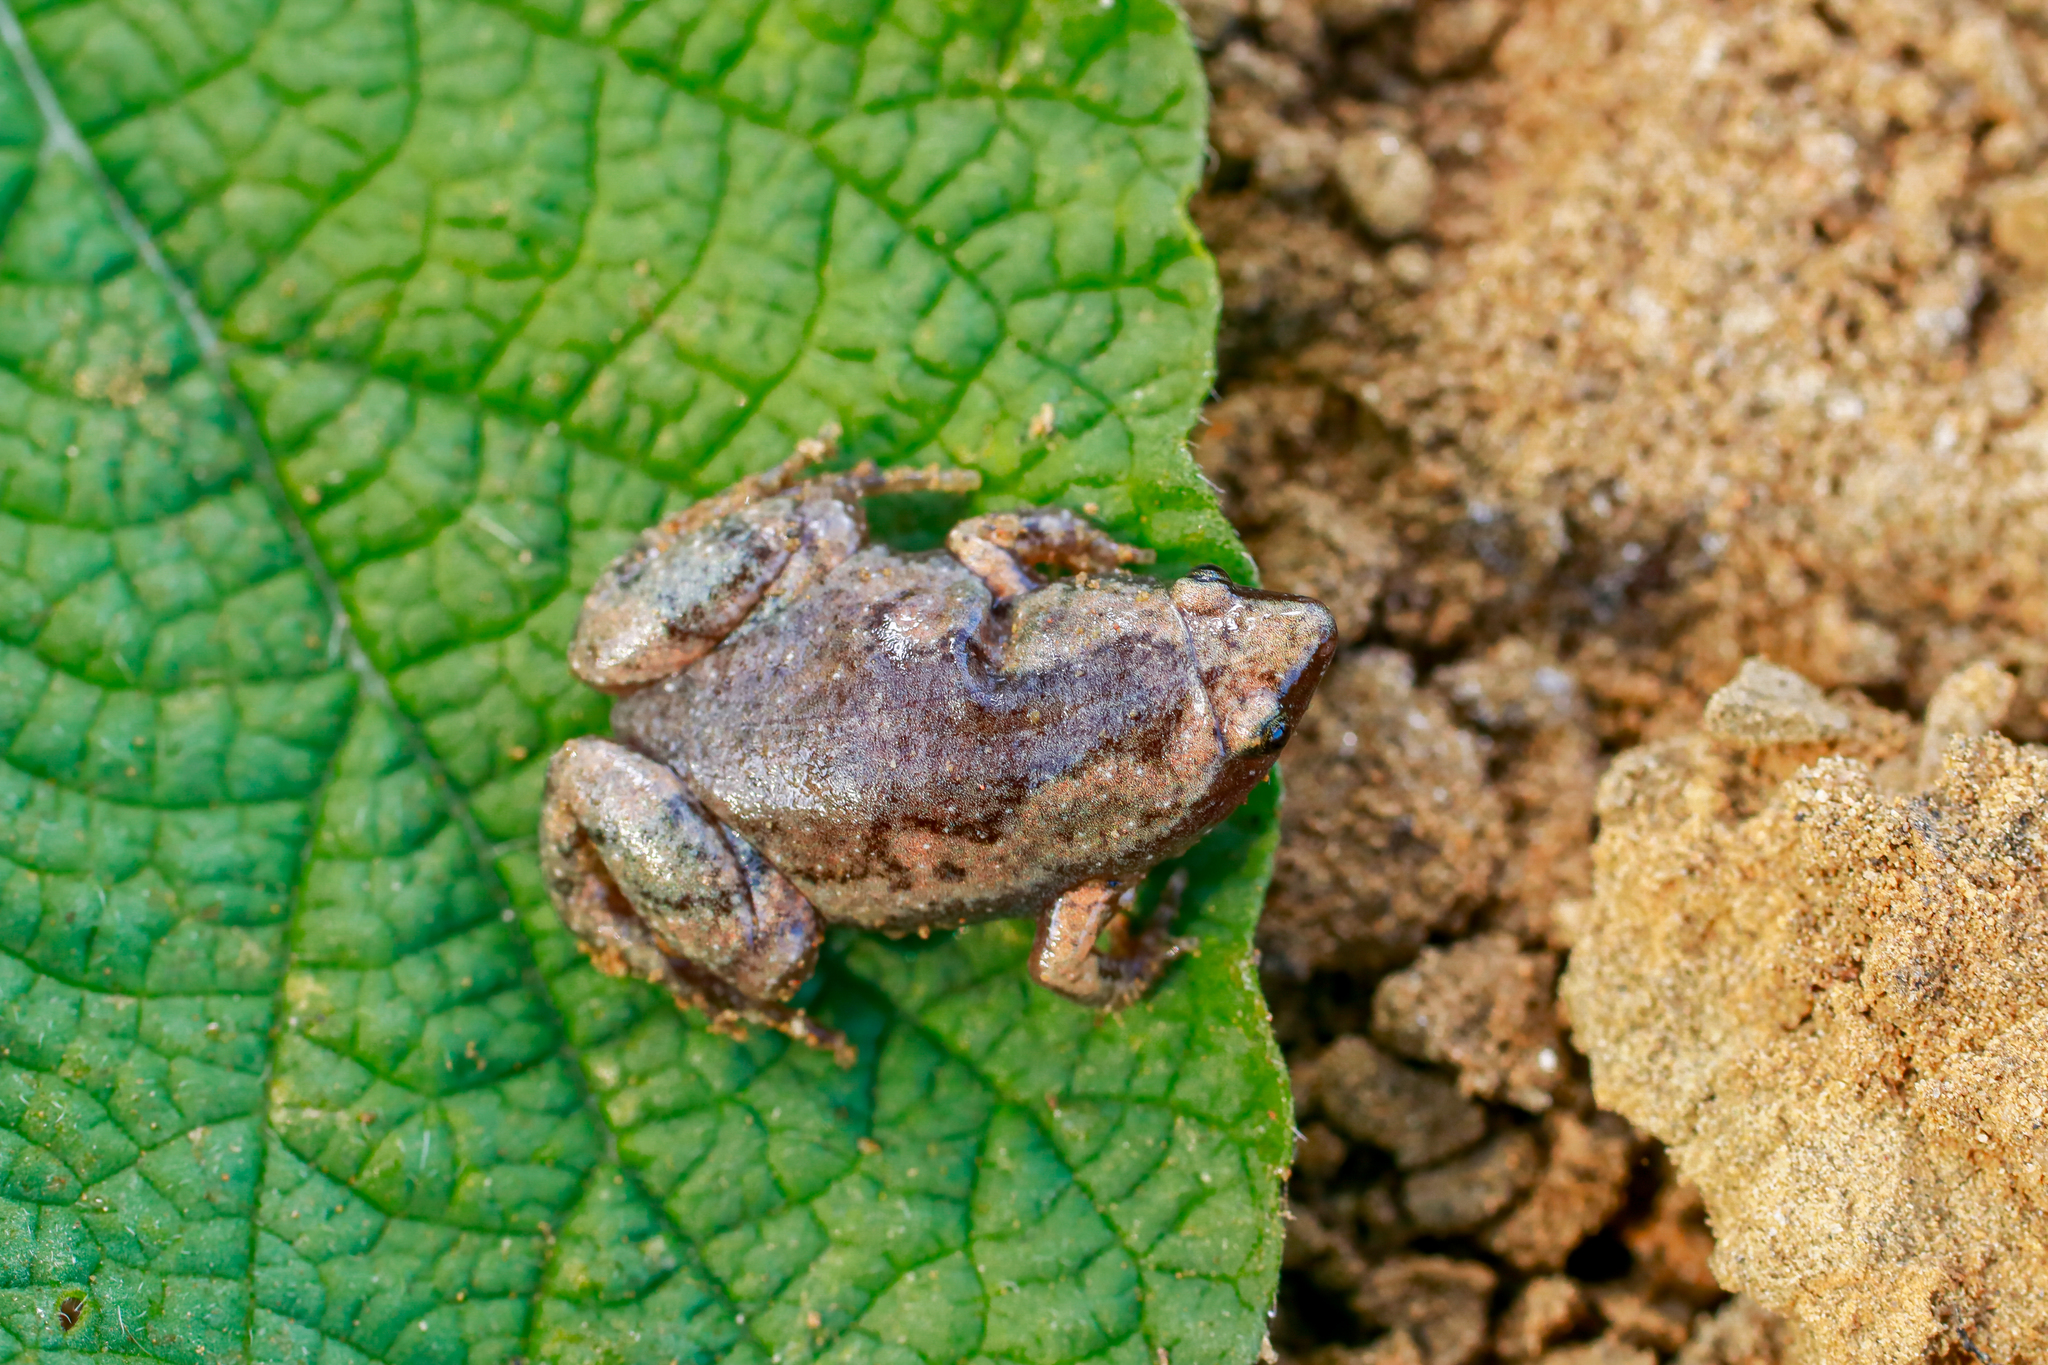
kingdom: Animalia
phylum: Chordata
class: Amphibia
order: Anura
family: Microhylidae
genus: Elachistocleis
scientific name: Elachistocleis panamensis
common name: Panama humming frog
